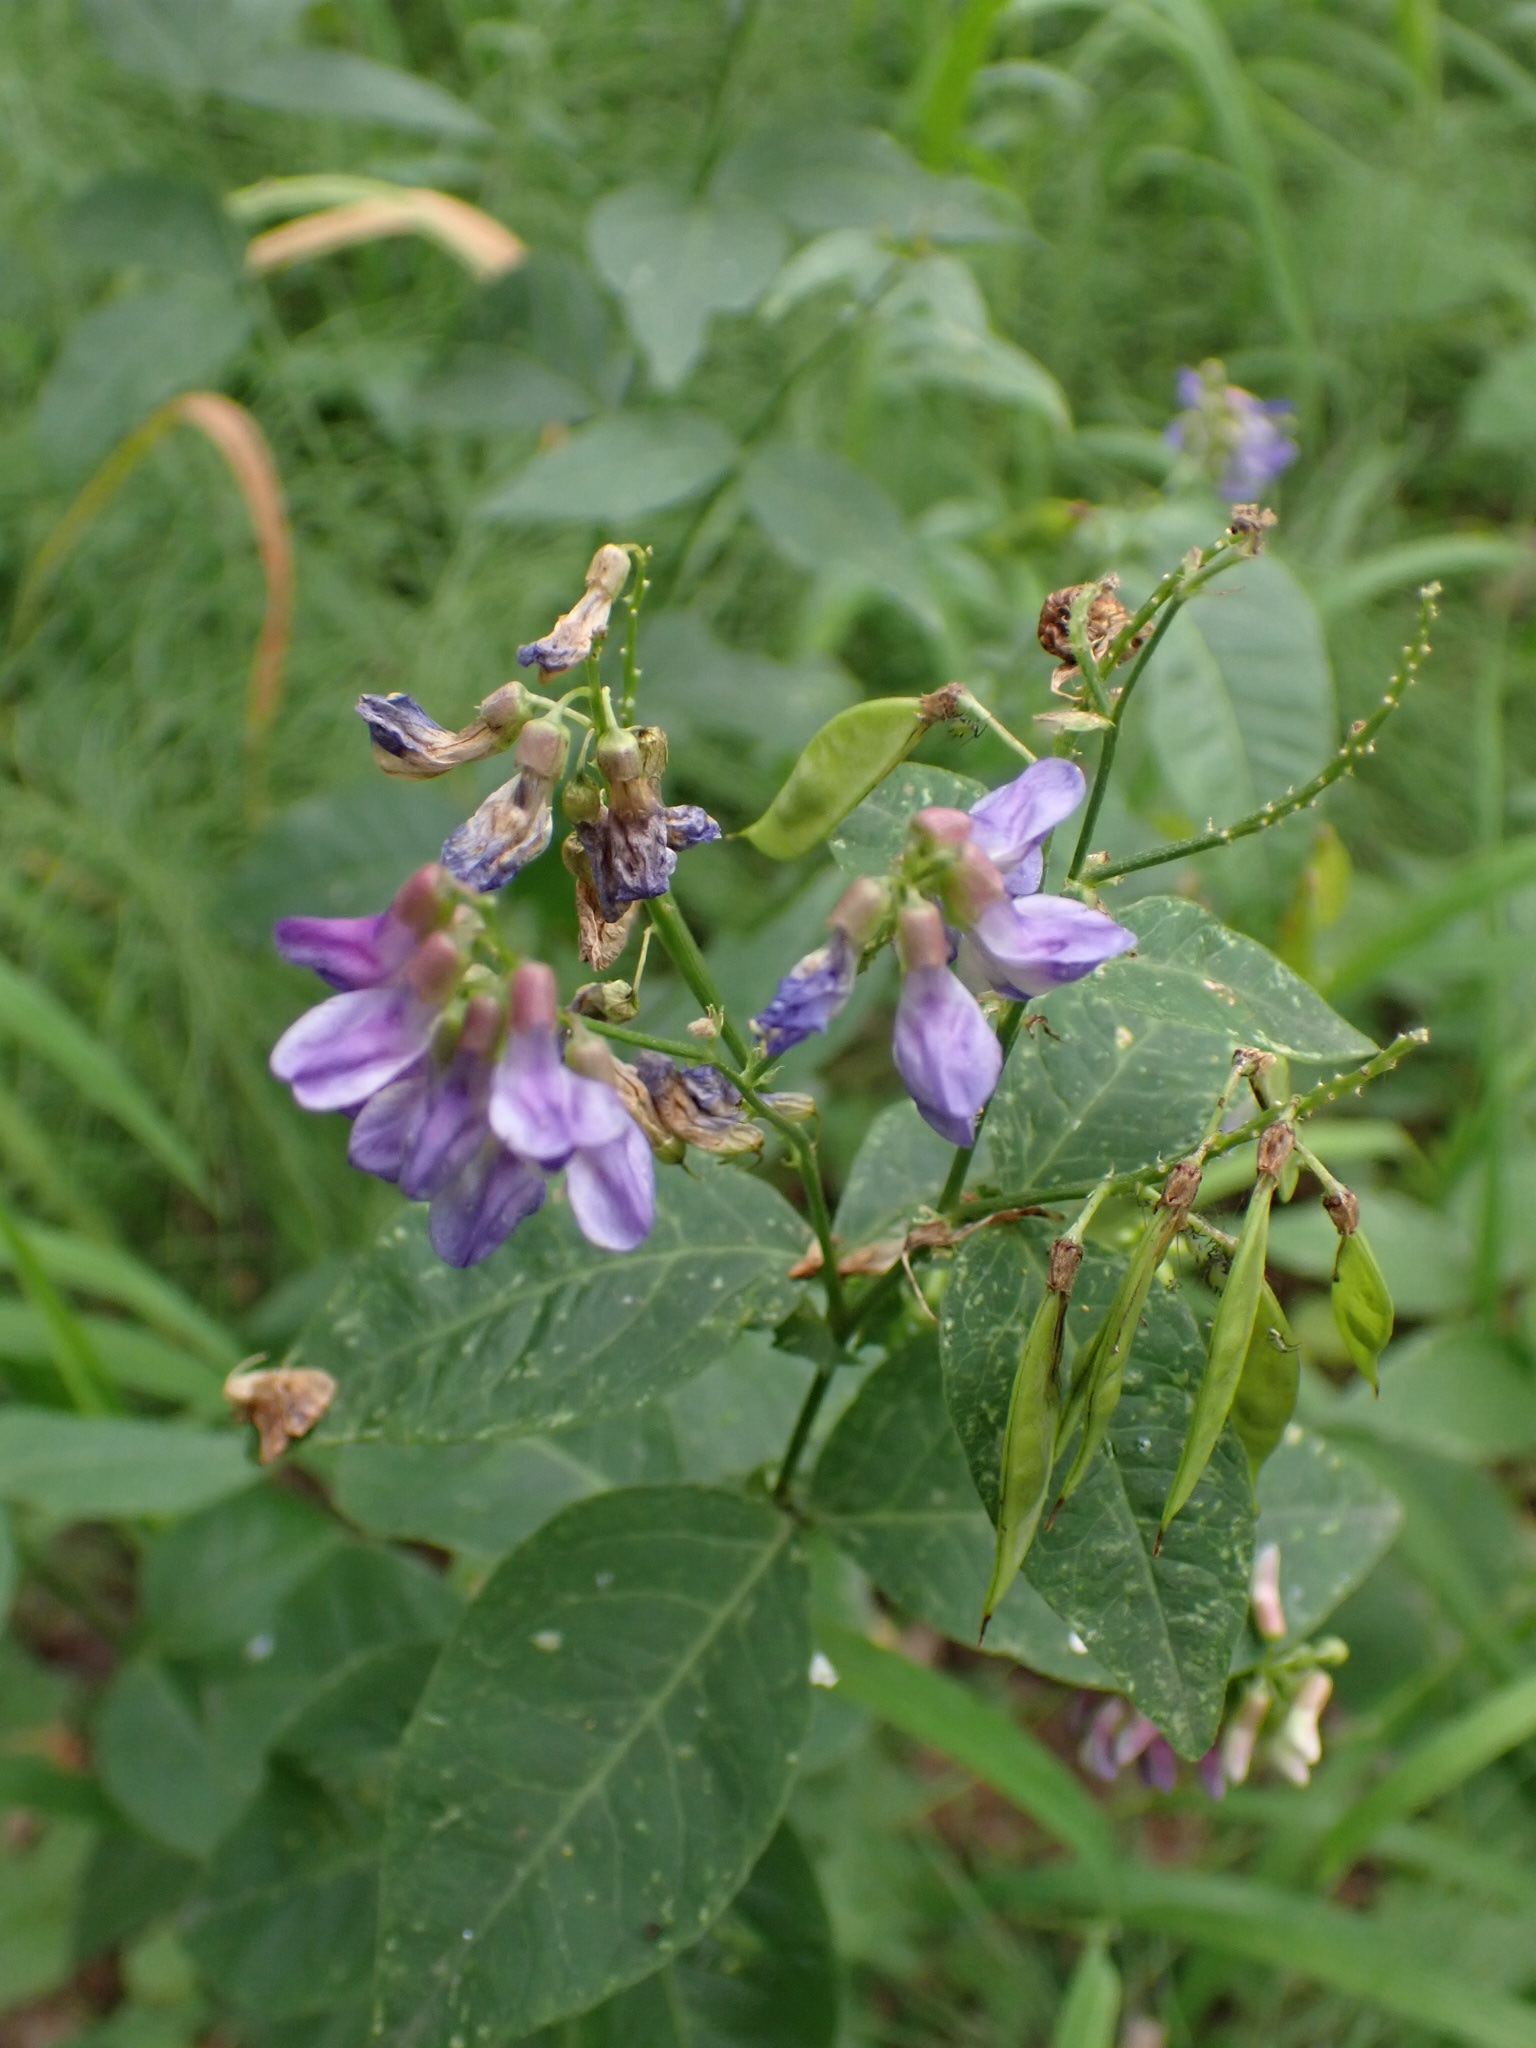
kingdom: Plantae
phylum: Tracheophyta
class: Magnoliopsida
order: Fabales
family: Fabaceae
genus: Vicia
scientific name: Vicia unijuga
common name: Two-leaf vetch
